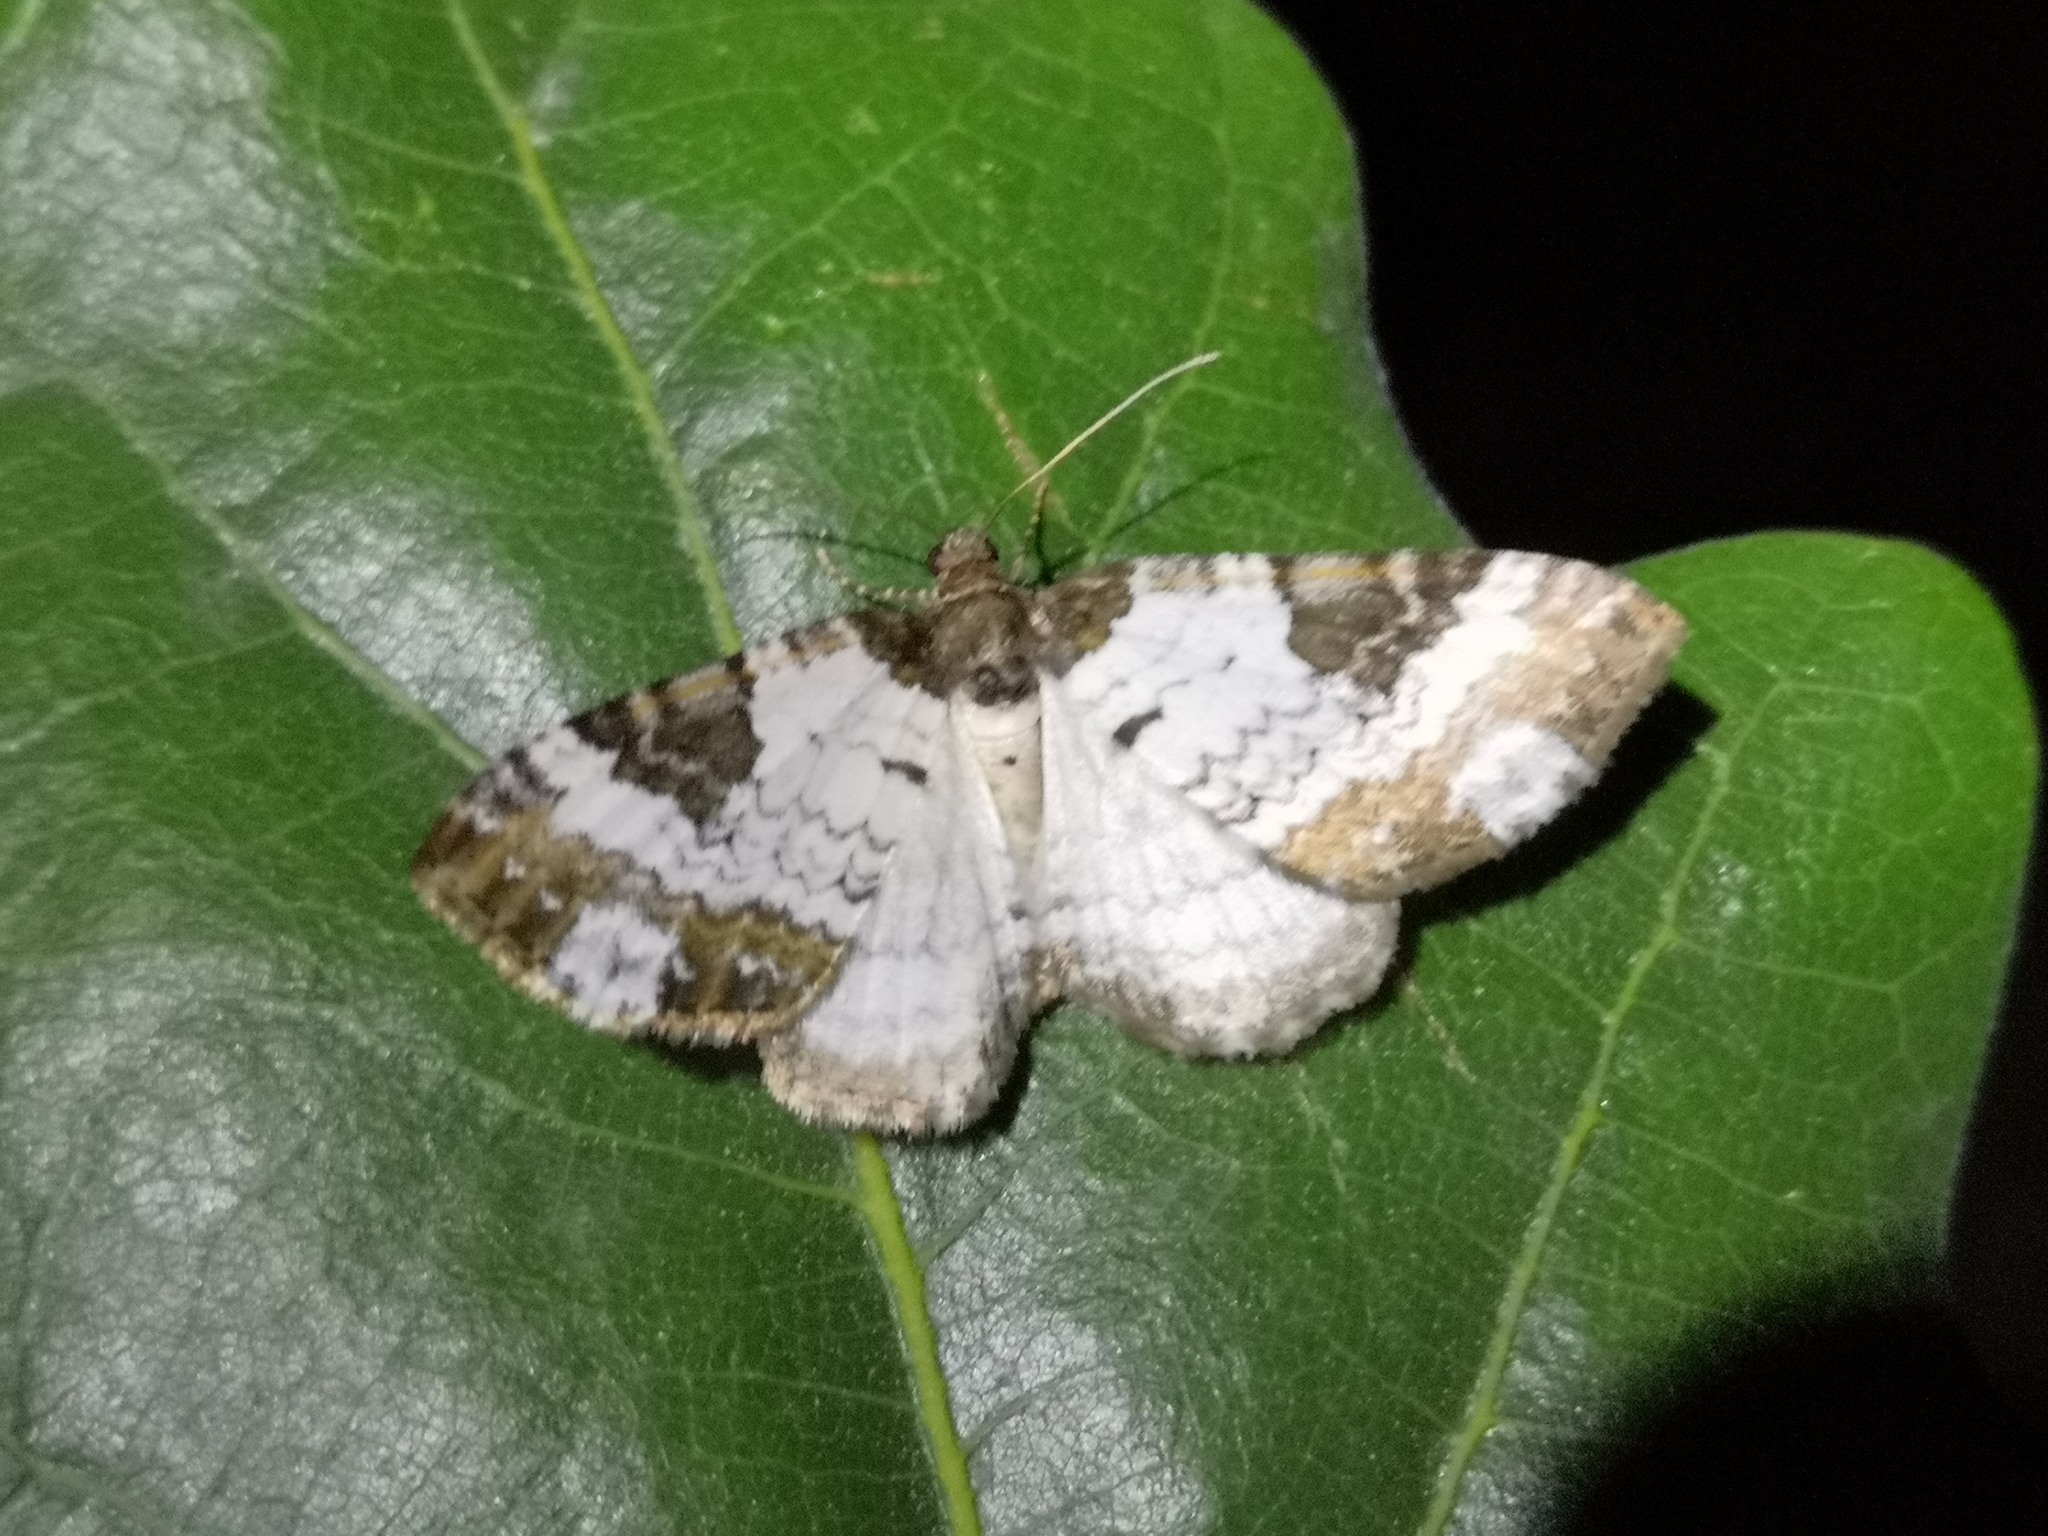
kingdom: Animalia
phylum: Arthropoda
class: Insecta
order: Lepidoptera
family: Geometridae
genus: Melanthia
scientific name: Melanthia procellata
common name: Pretty chalk carpet
